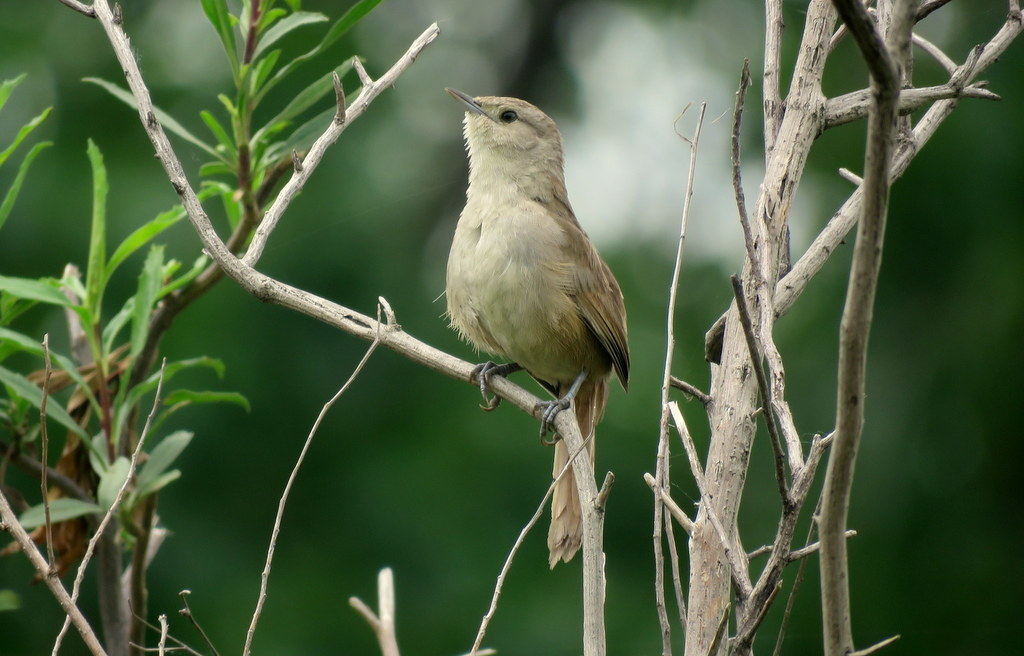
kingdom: Animalia
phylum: Chordata
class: Aves
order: Passeriformes
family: Furnariidae
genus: Phacellodomus
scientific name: Phacellodomus sibilatrix
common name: Little thornbird
